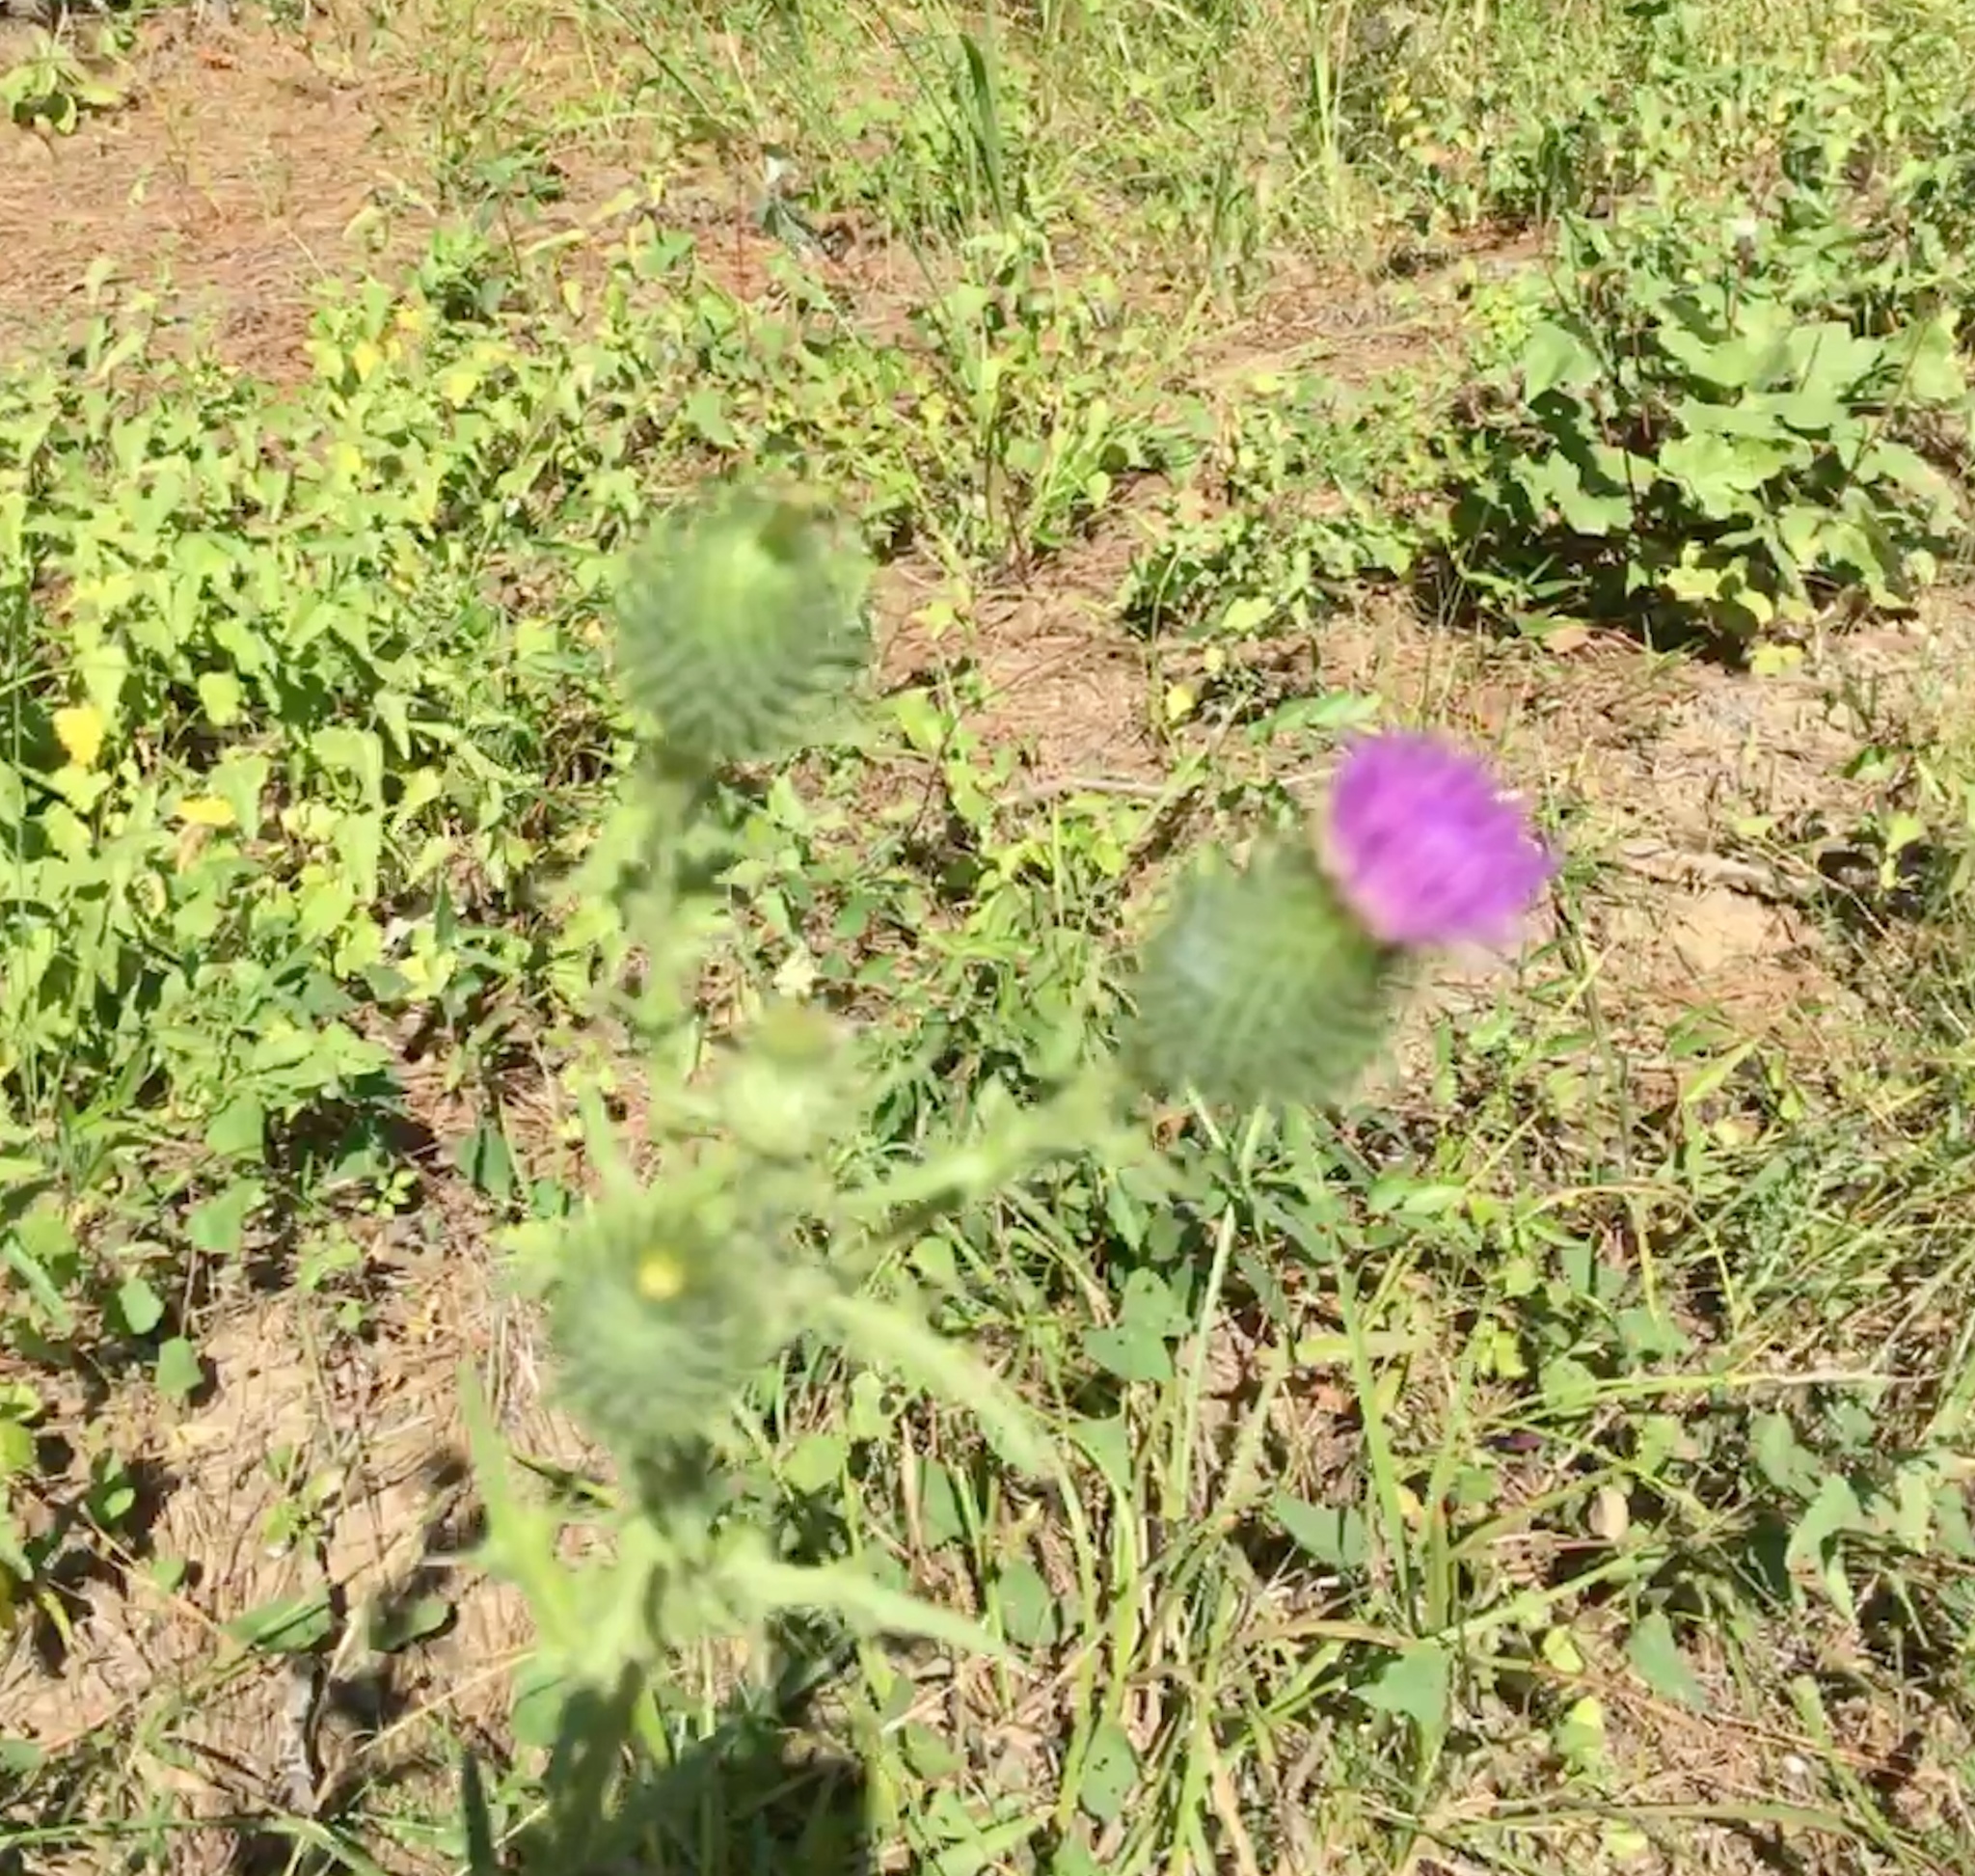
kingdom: Plantae
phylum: Tracheophyta
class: Magnoliopsida
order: Asterales
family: Asteraceae
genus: Cirsium
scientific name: Cirsium vulgare
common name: Bull thistle
